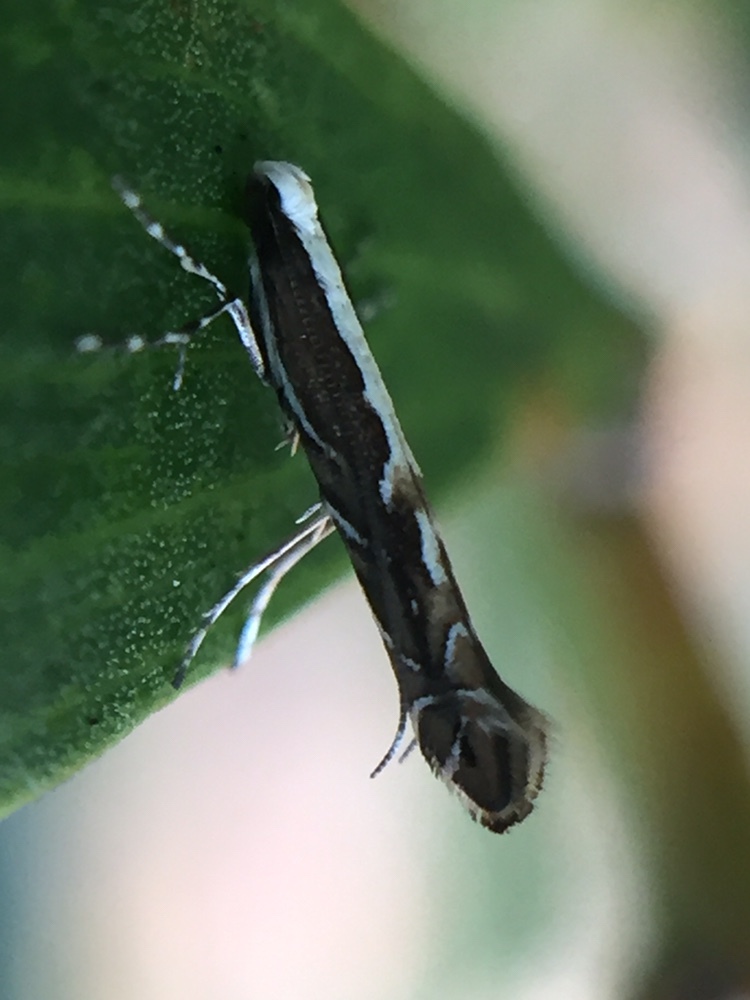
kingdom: Animalia
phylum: Arthropoda
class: Insecta
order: Lepidoptera
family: Gracillariidae
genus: Parectopa
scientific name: Parectopa alysidota
